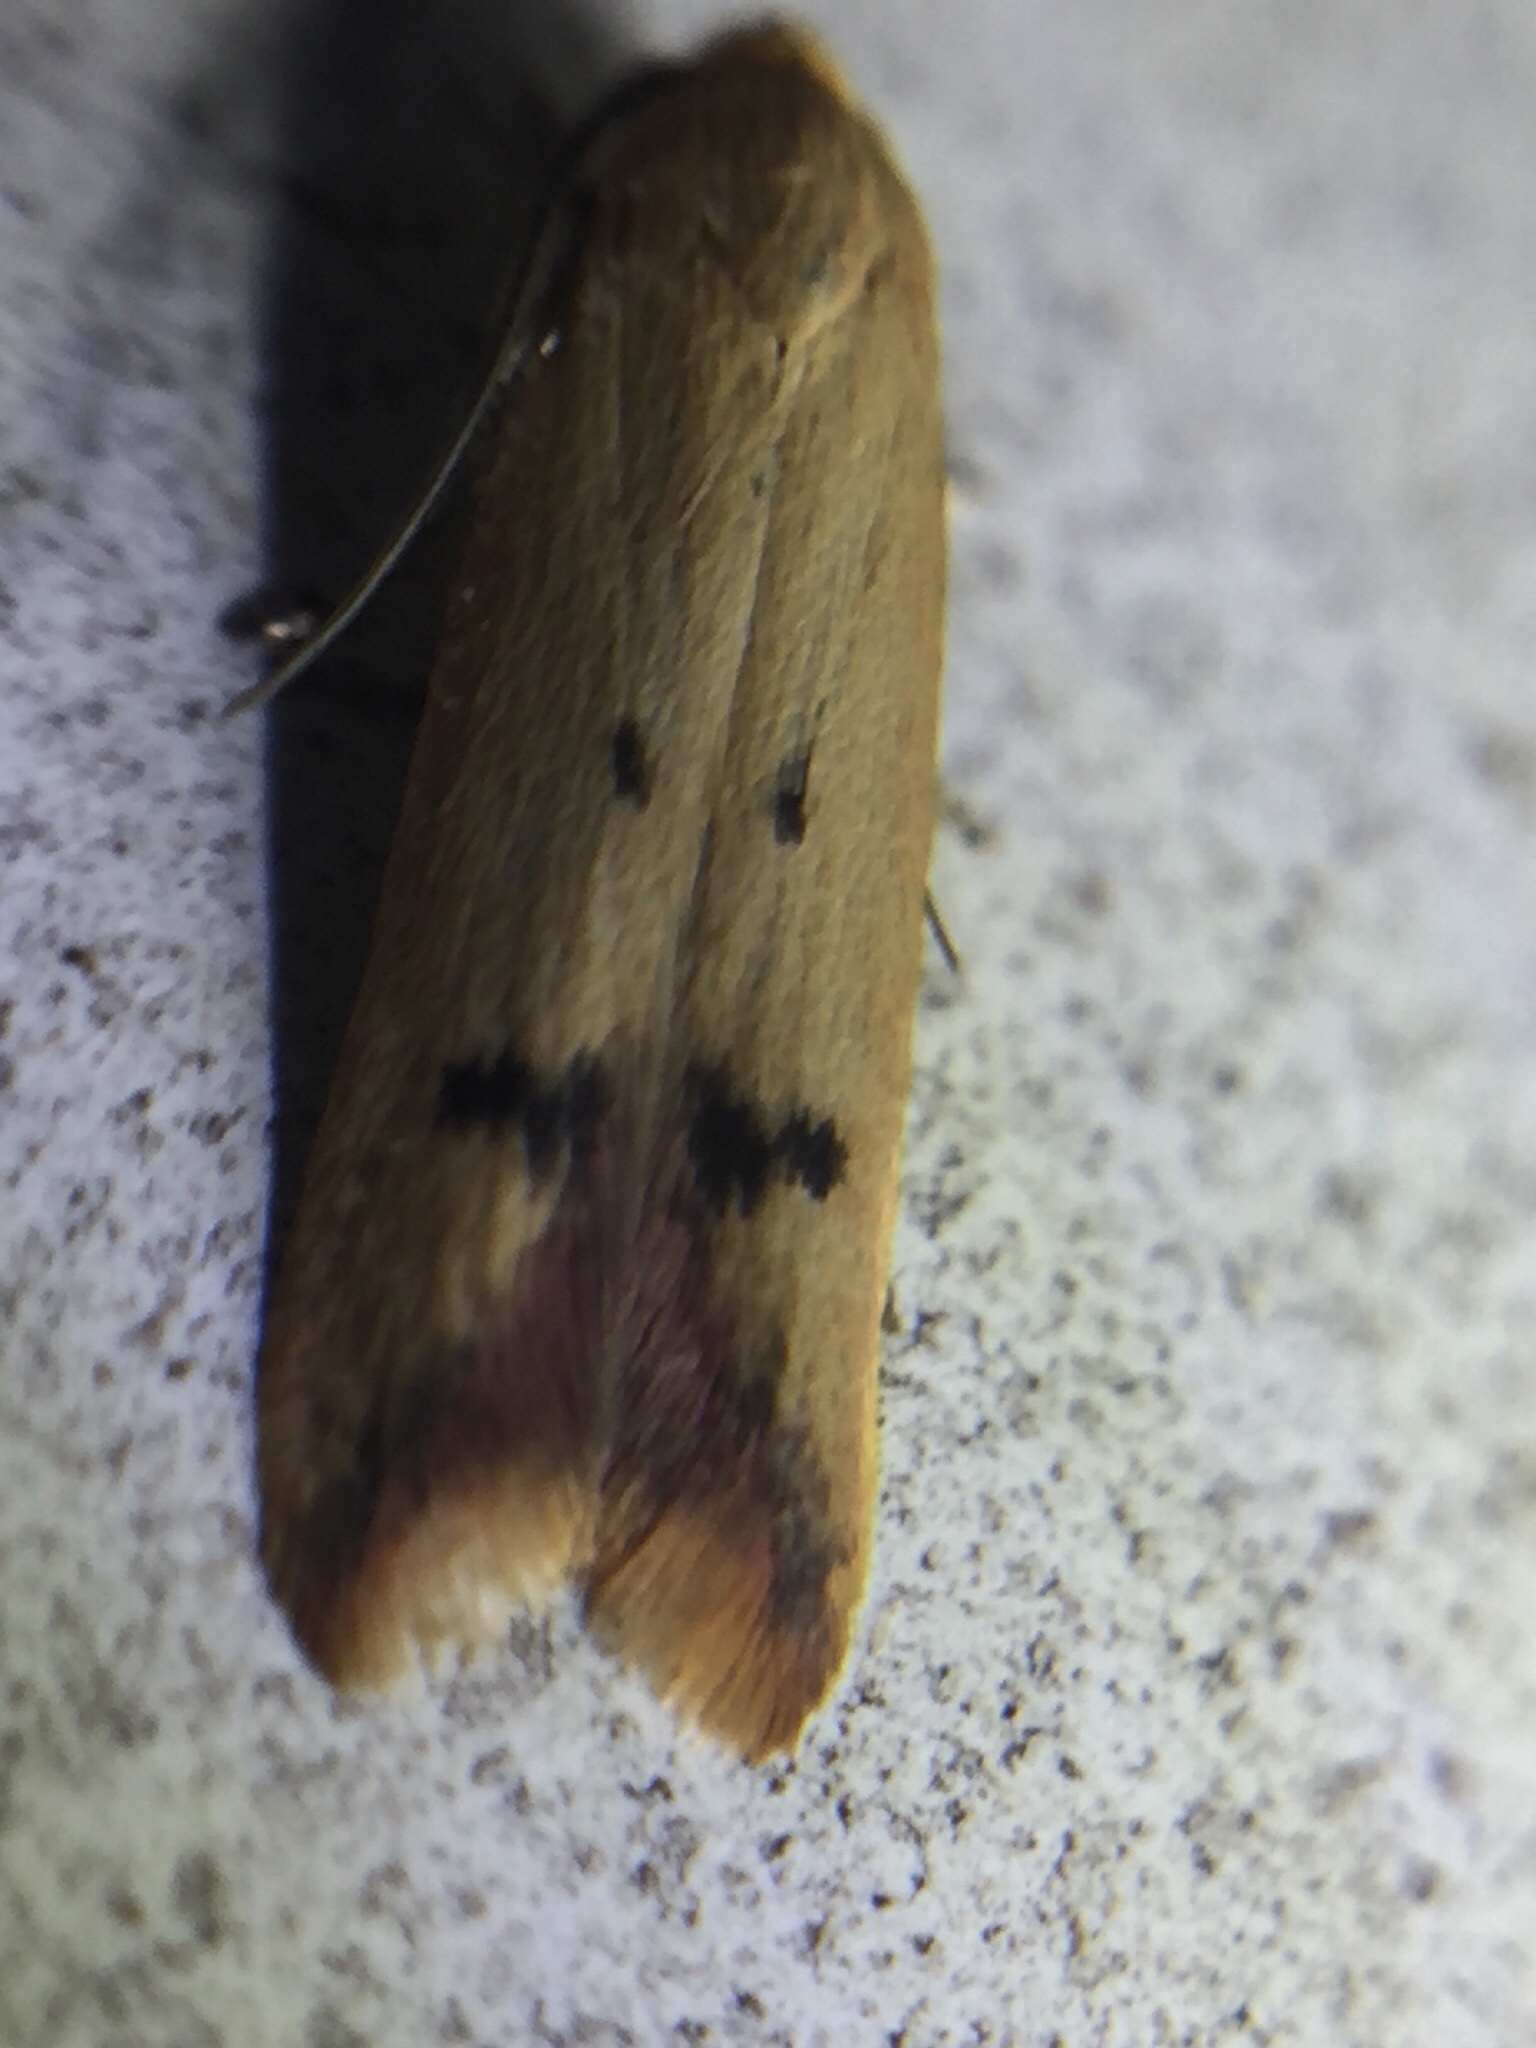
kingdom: Animalia
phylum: Arthropoda
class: Insecta
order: Lepidoptera
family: Oecophoridae
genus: Tachystola
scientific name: Tachystola hemisema
